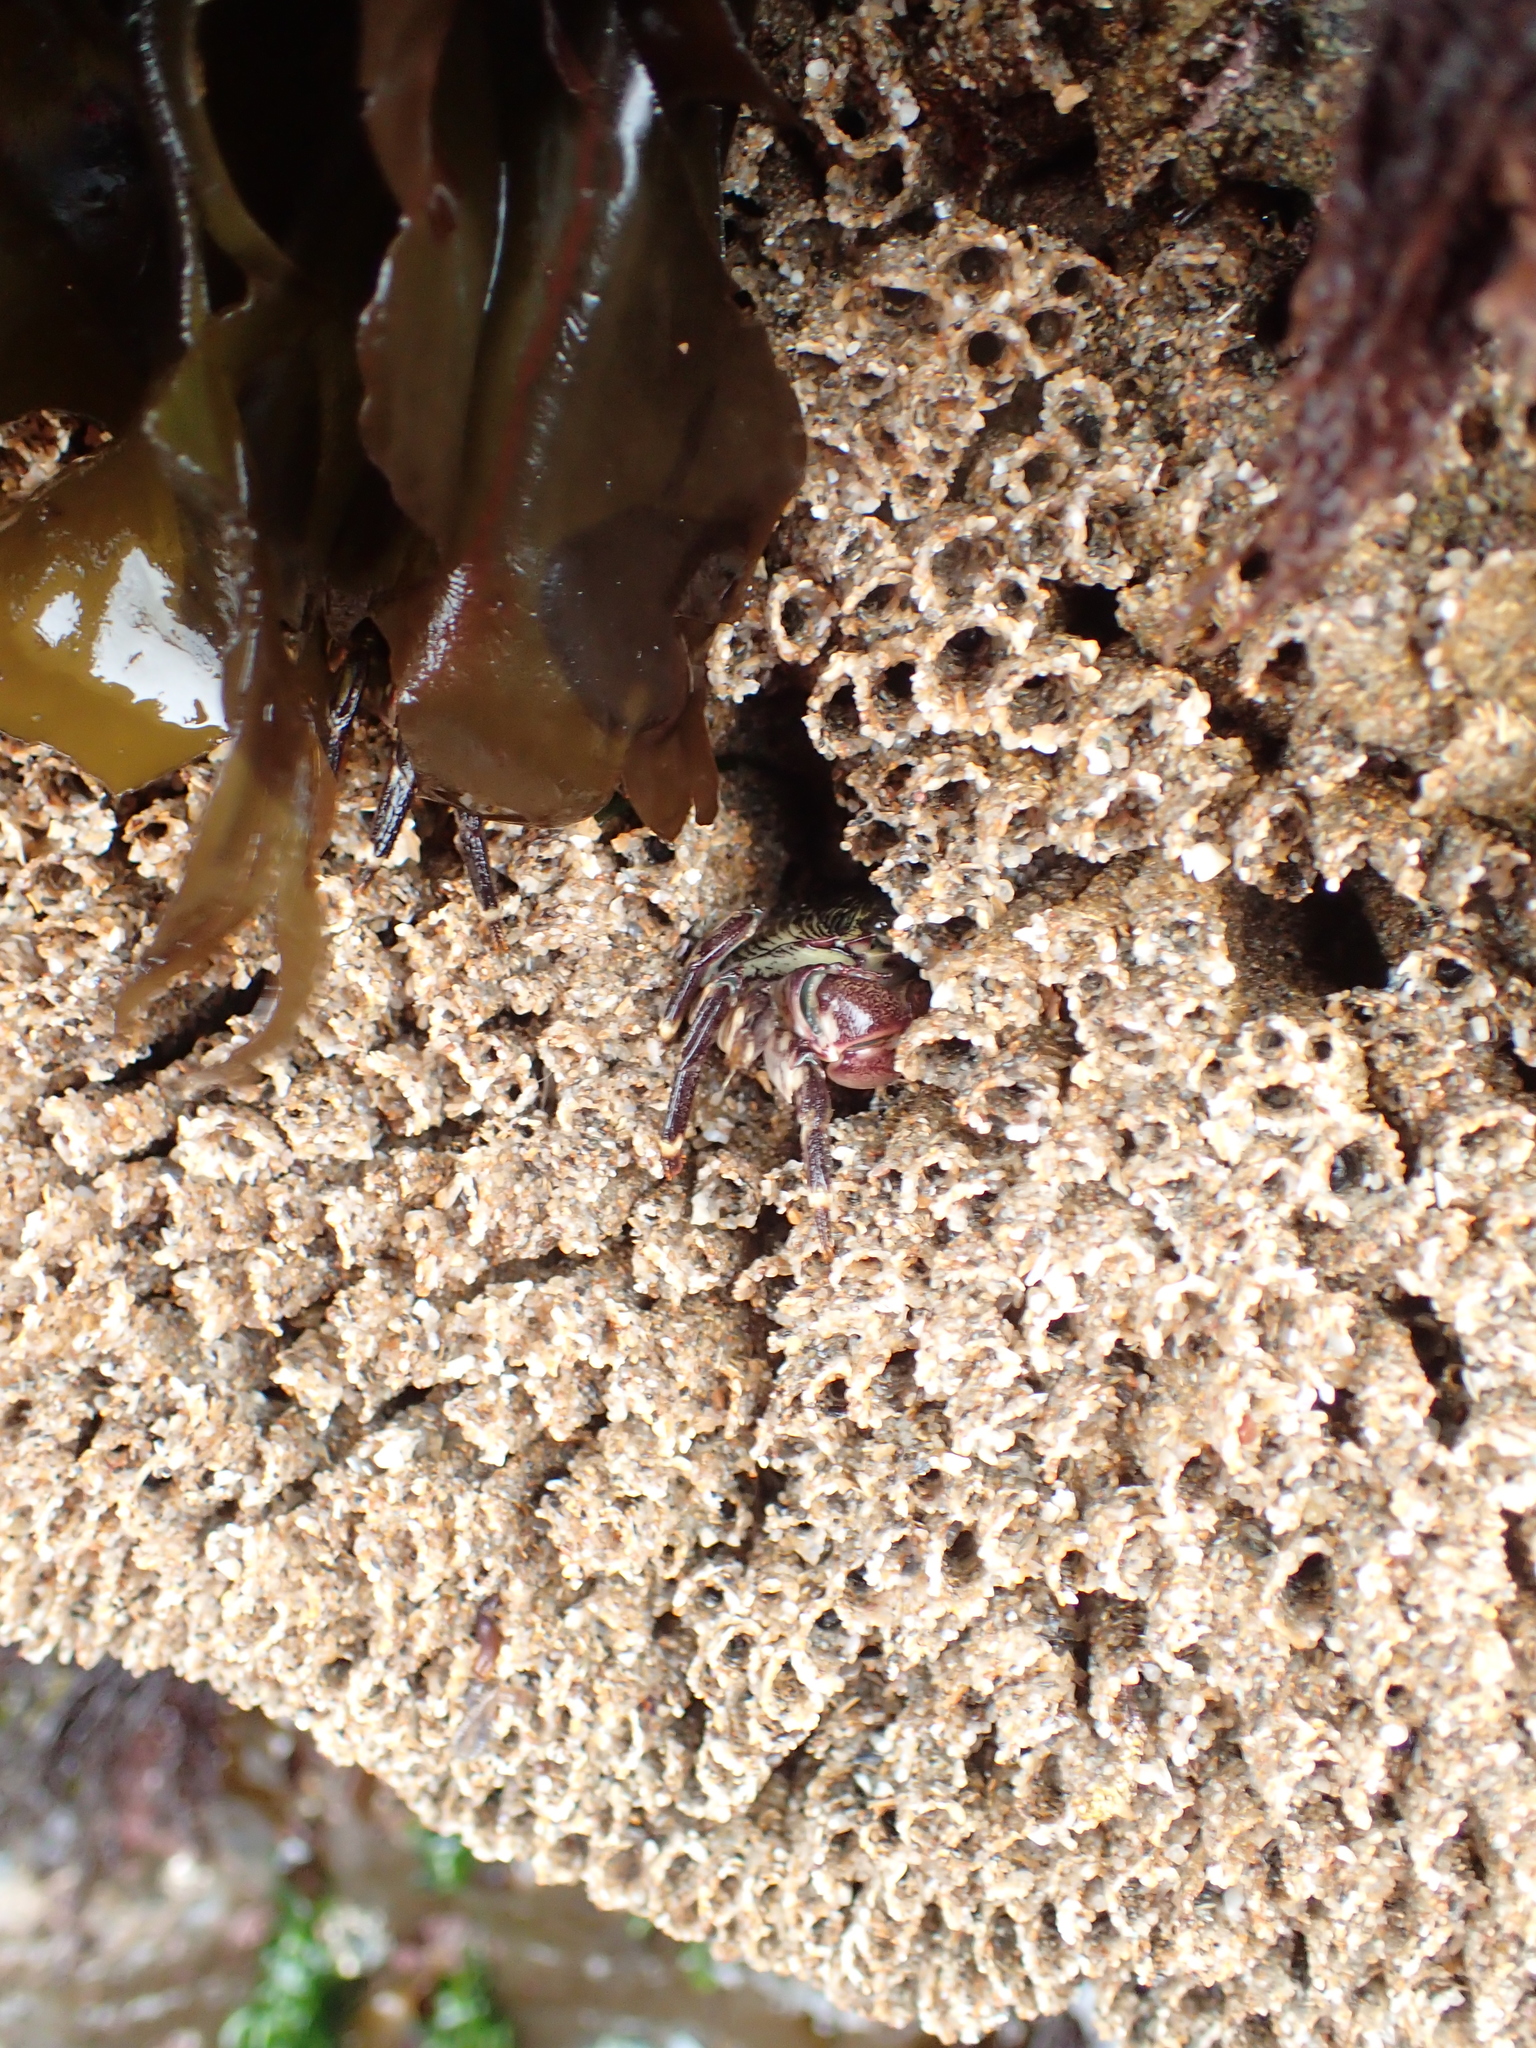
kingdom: Animalia
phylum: Arthropoda
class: Malacostraca
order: Decapoda
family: Grapsidae
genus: Pachygrapsus
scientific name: Pachygrapsus crassipes
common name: Striped shore crab
